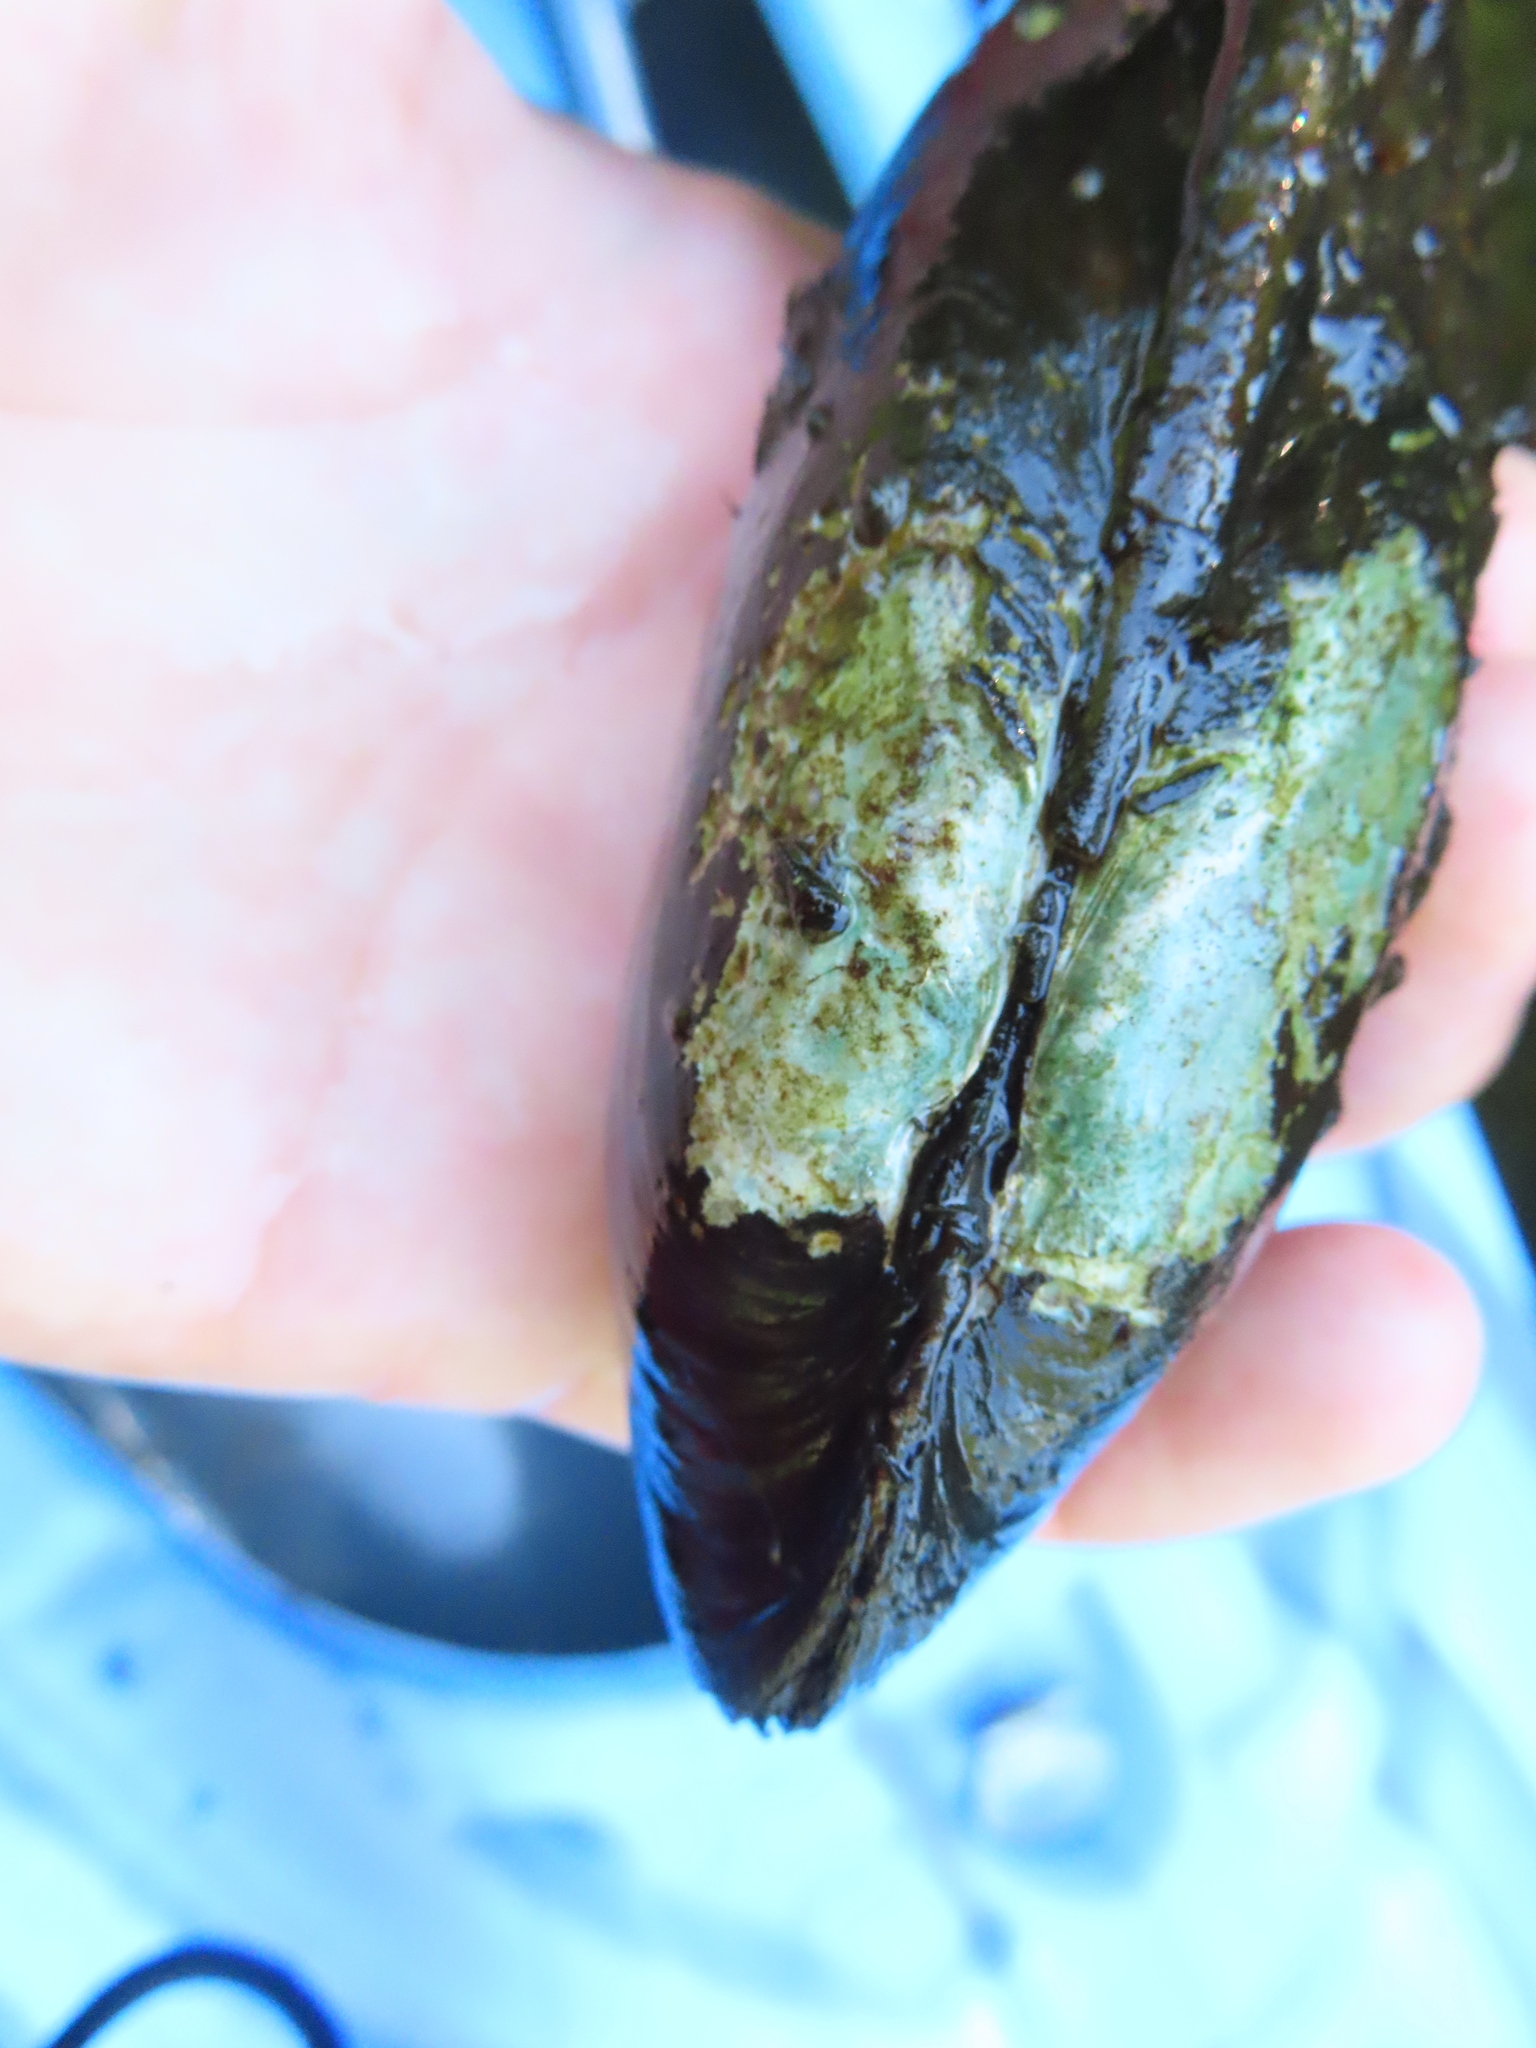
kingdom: Animalia
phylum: Mollusca
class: Bivalvia
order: Unionida
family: Unionidae
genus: Ligumia
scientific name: Ligumia recta
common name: Black sandshell
